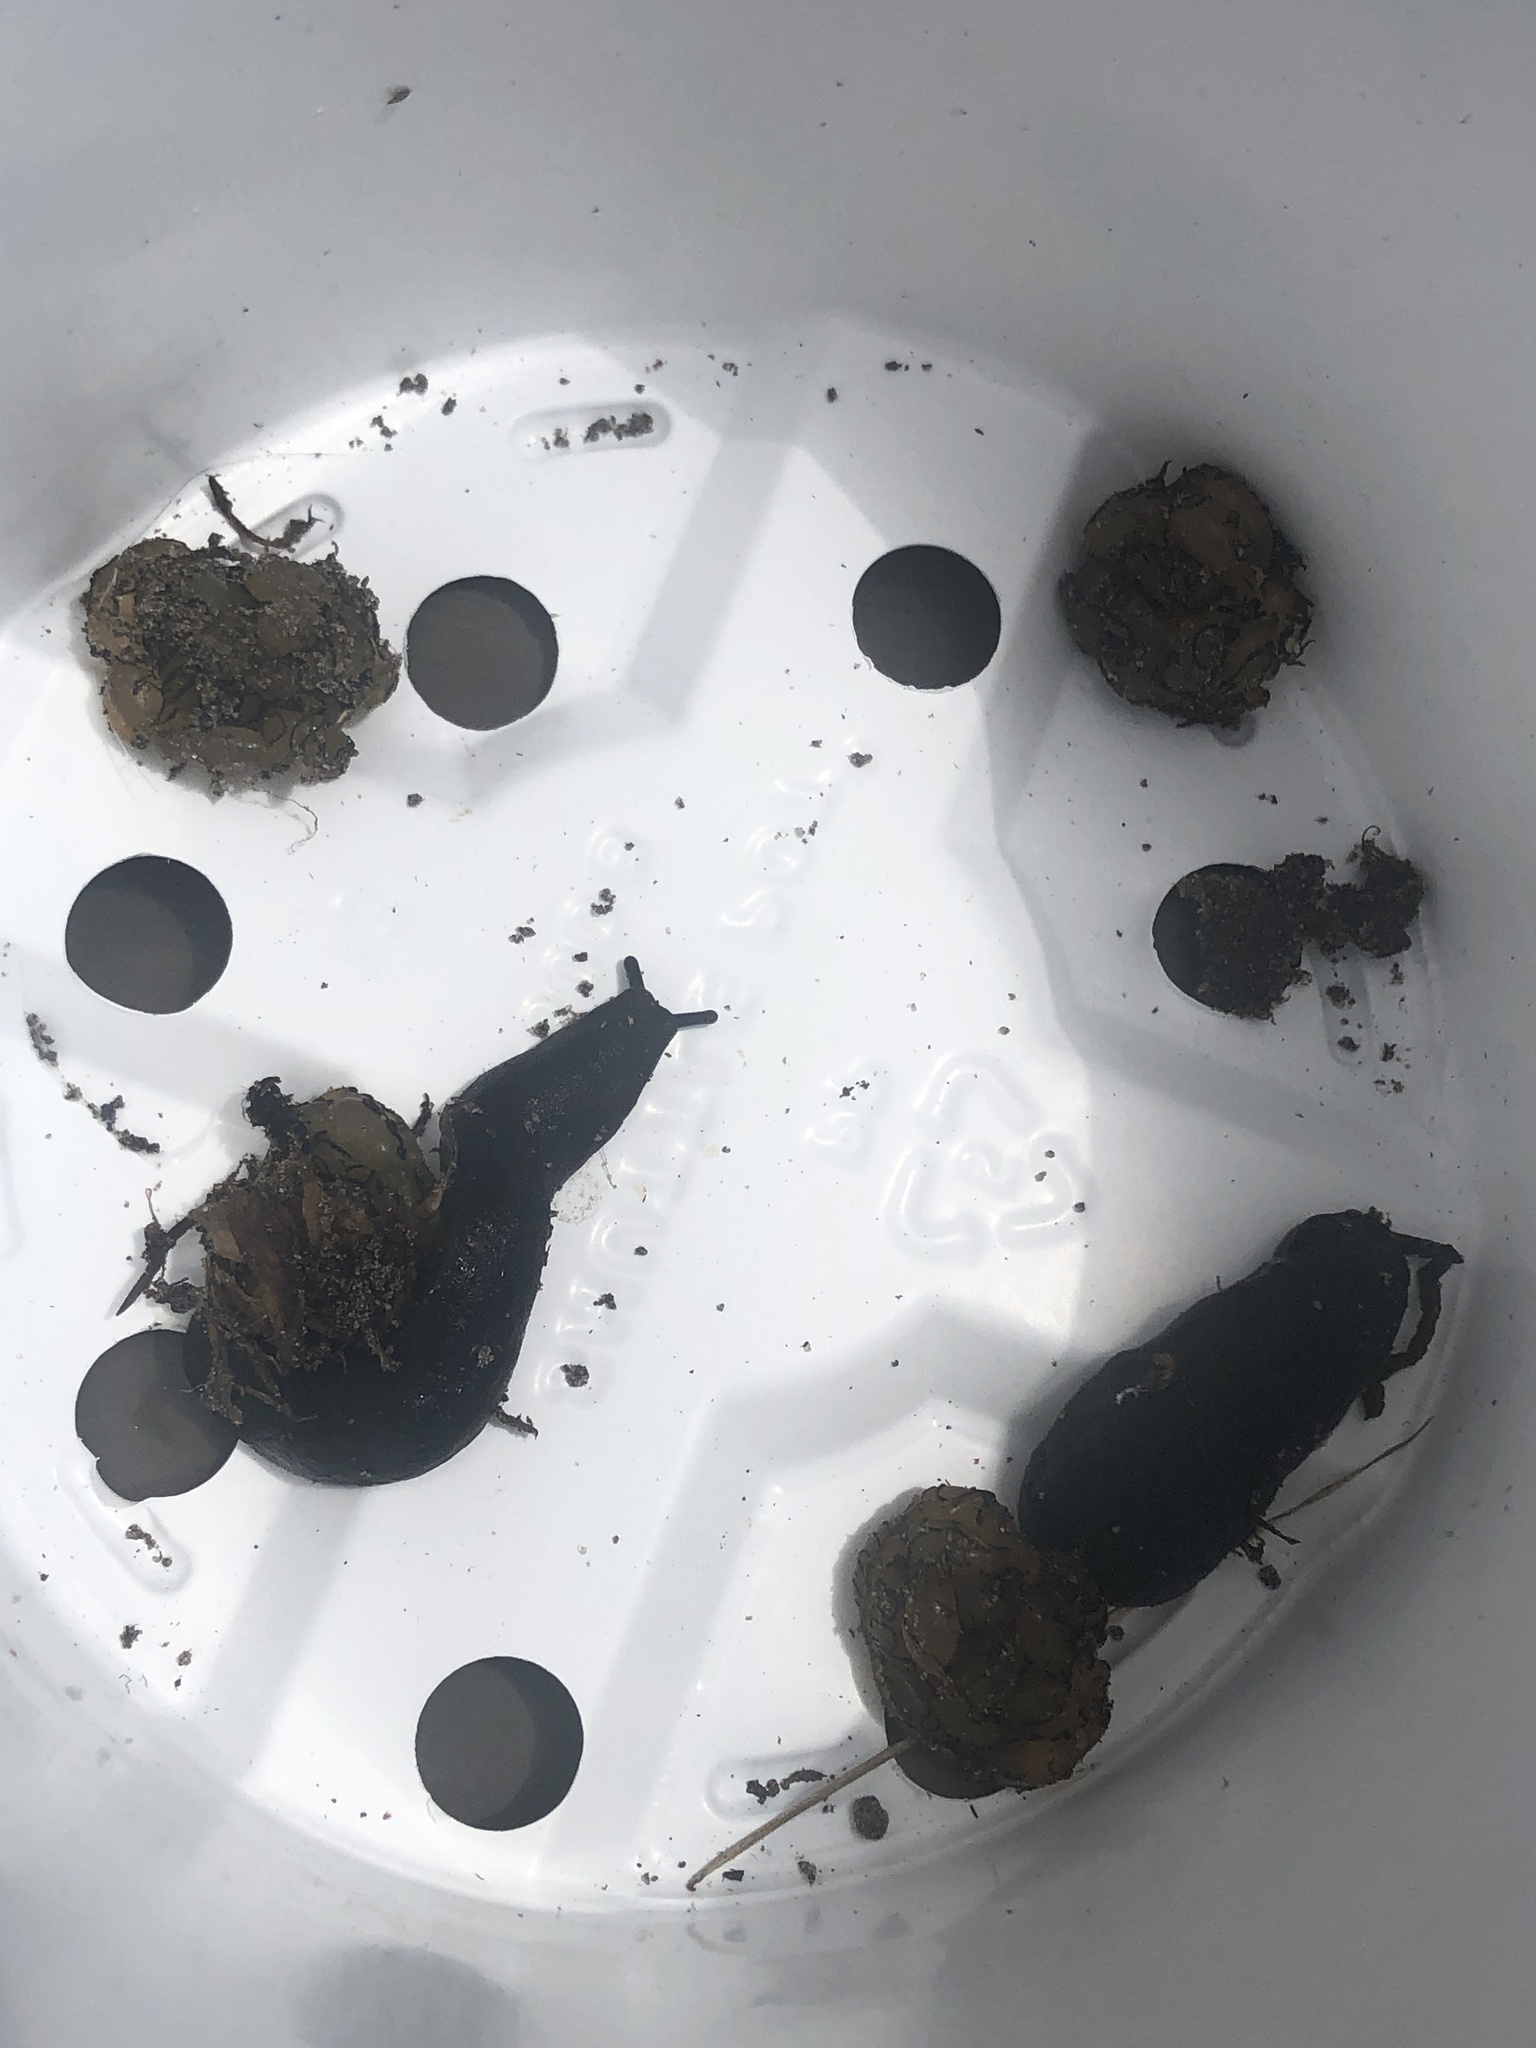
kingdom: Animalia
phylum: Mollusca
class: Gastropoda
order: Systellommatophora
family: Veronicellidae
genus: Belocaulus
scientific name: Belocaulus angustipes
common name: Black velvet leatherleaf slug
